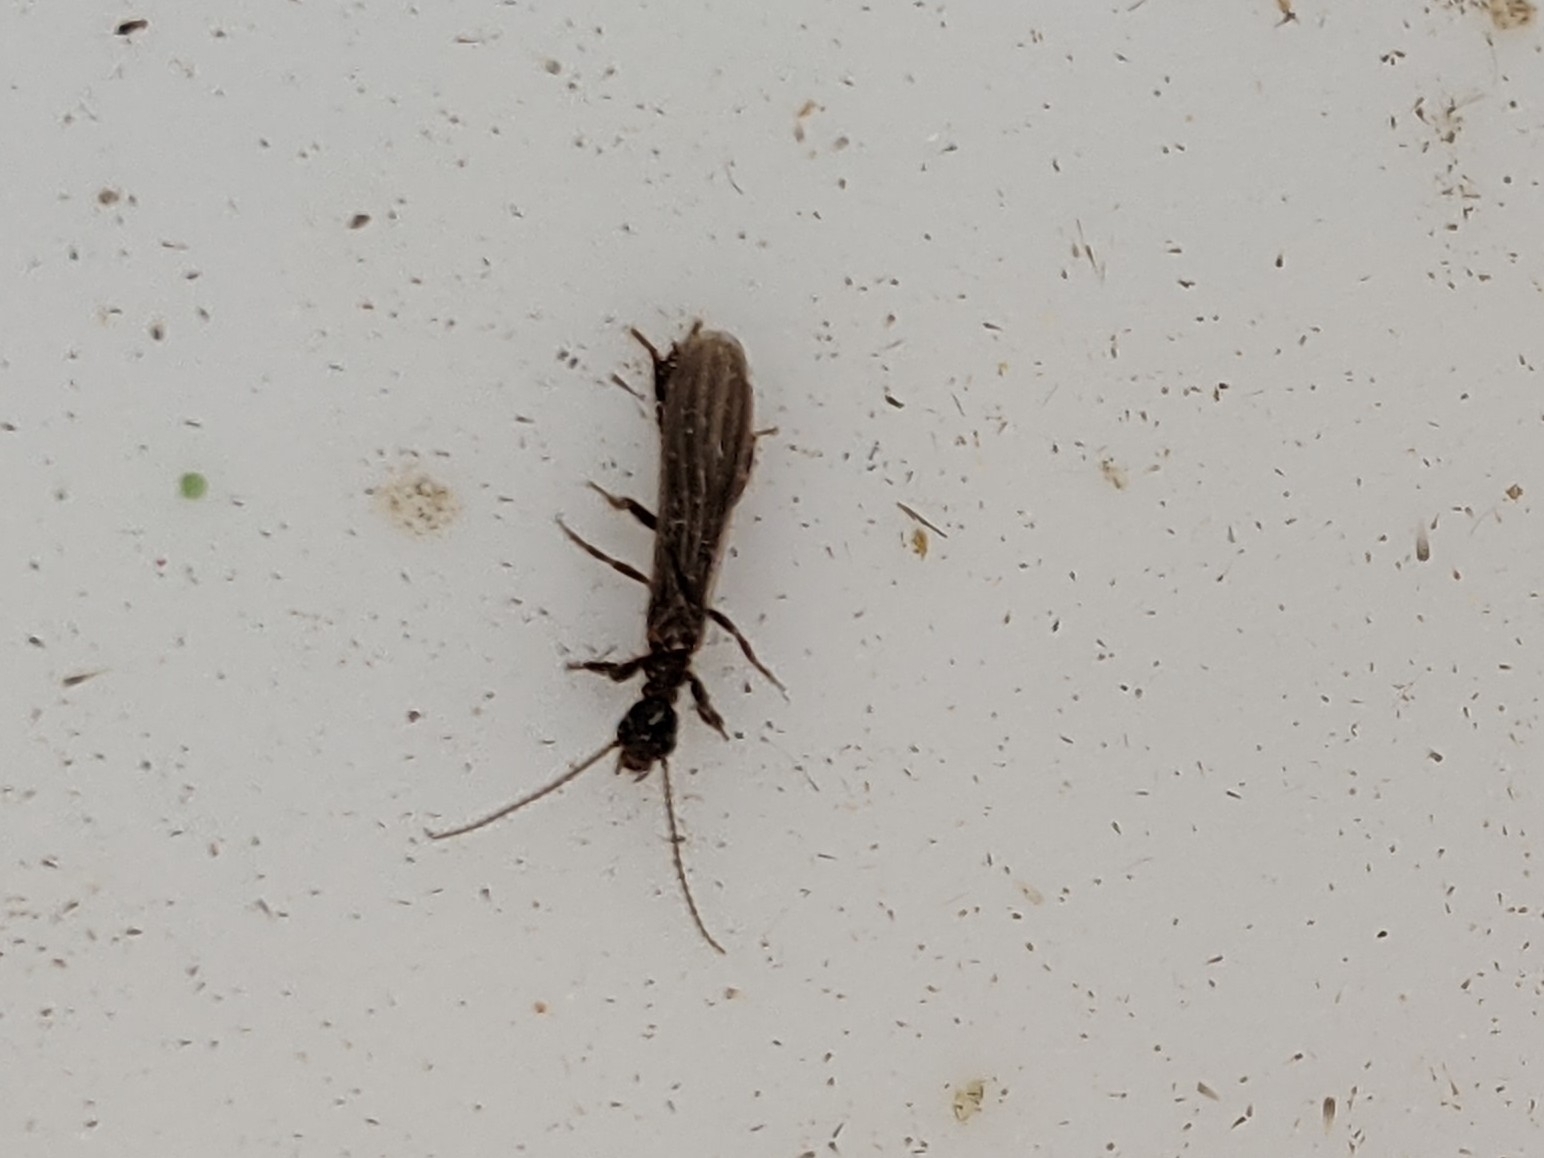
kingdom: Animalia
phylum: Arthropoda
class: Insecta
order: Embioptera
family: Oligotomidae
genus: Oligotoma
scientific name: Oligotoma nigra
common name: Black webspinner
